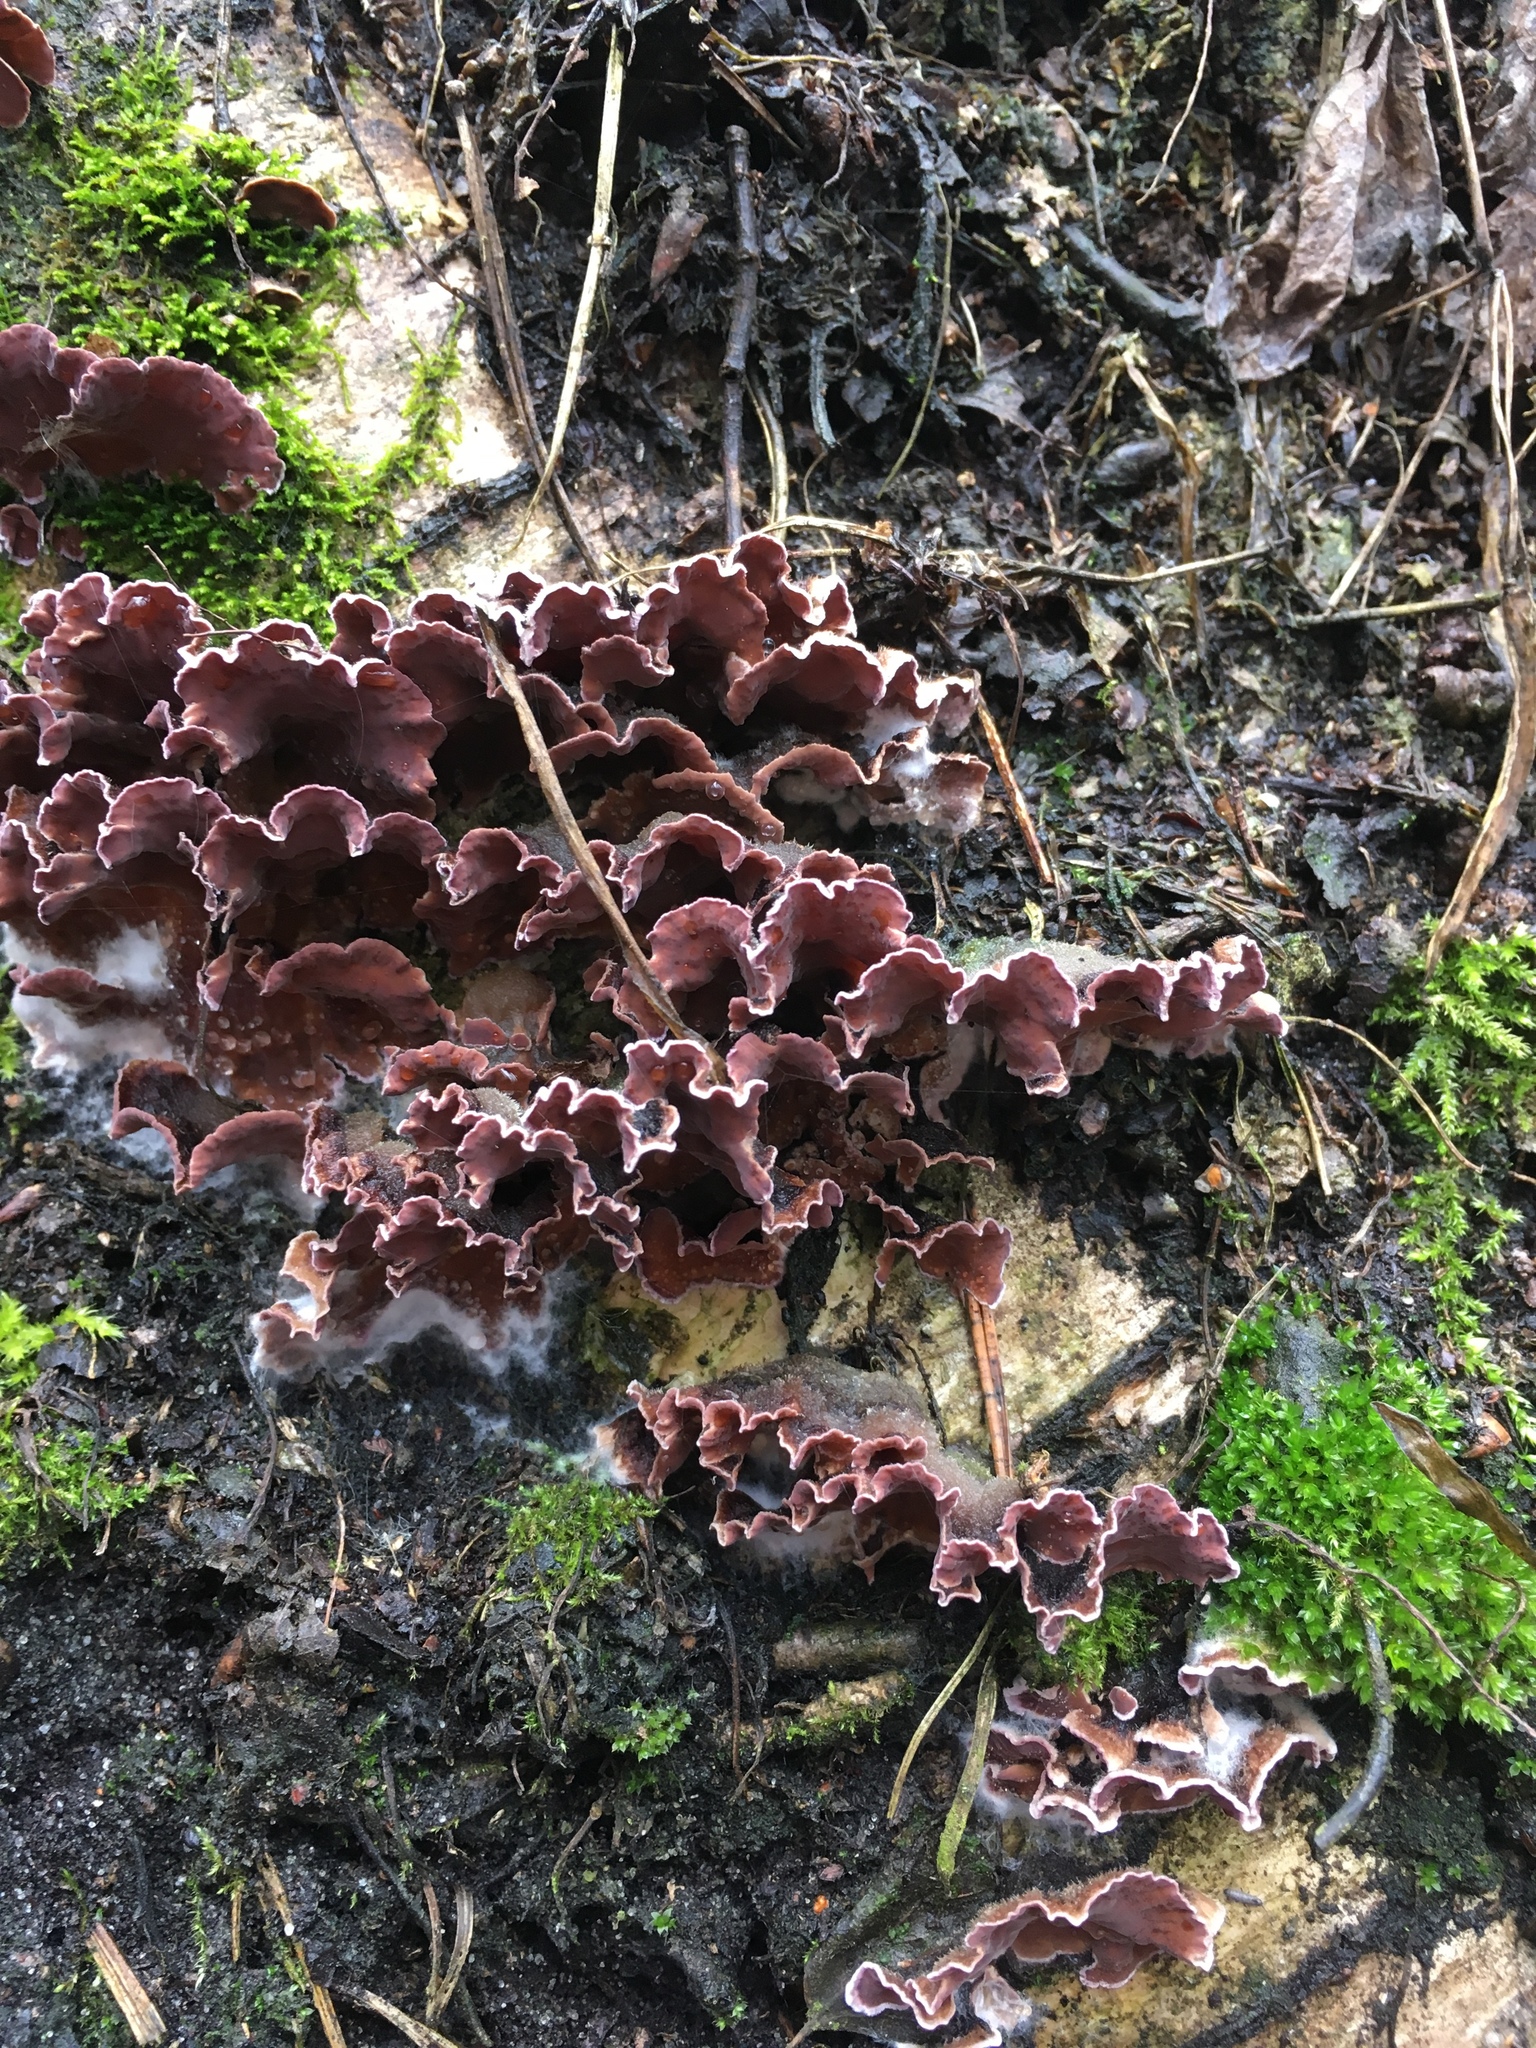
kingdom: Fungi
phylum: Basidiomycota
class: Agaricomycetes
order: Agaricales
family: Cyphellaceae
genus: Chondrostereum
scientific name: Chondrostereum purpureum
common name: Silver leaf disease
